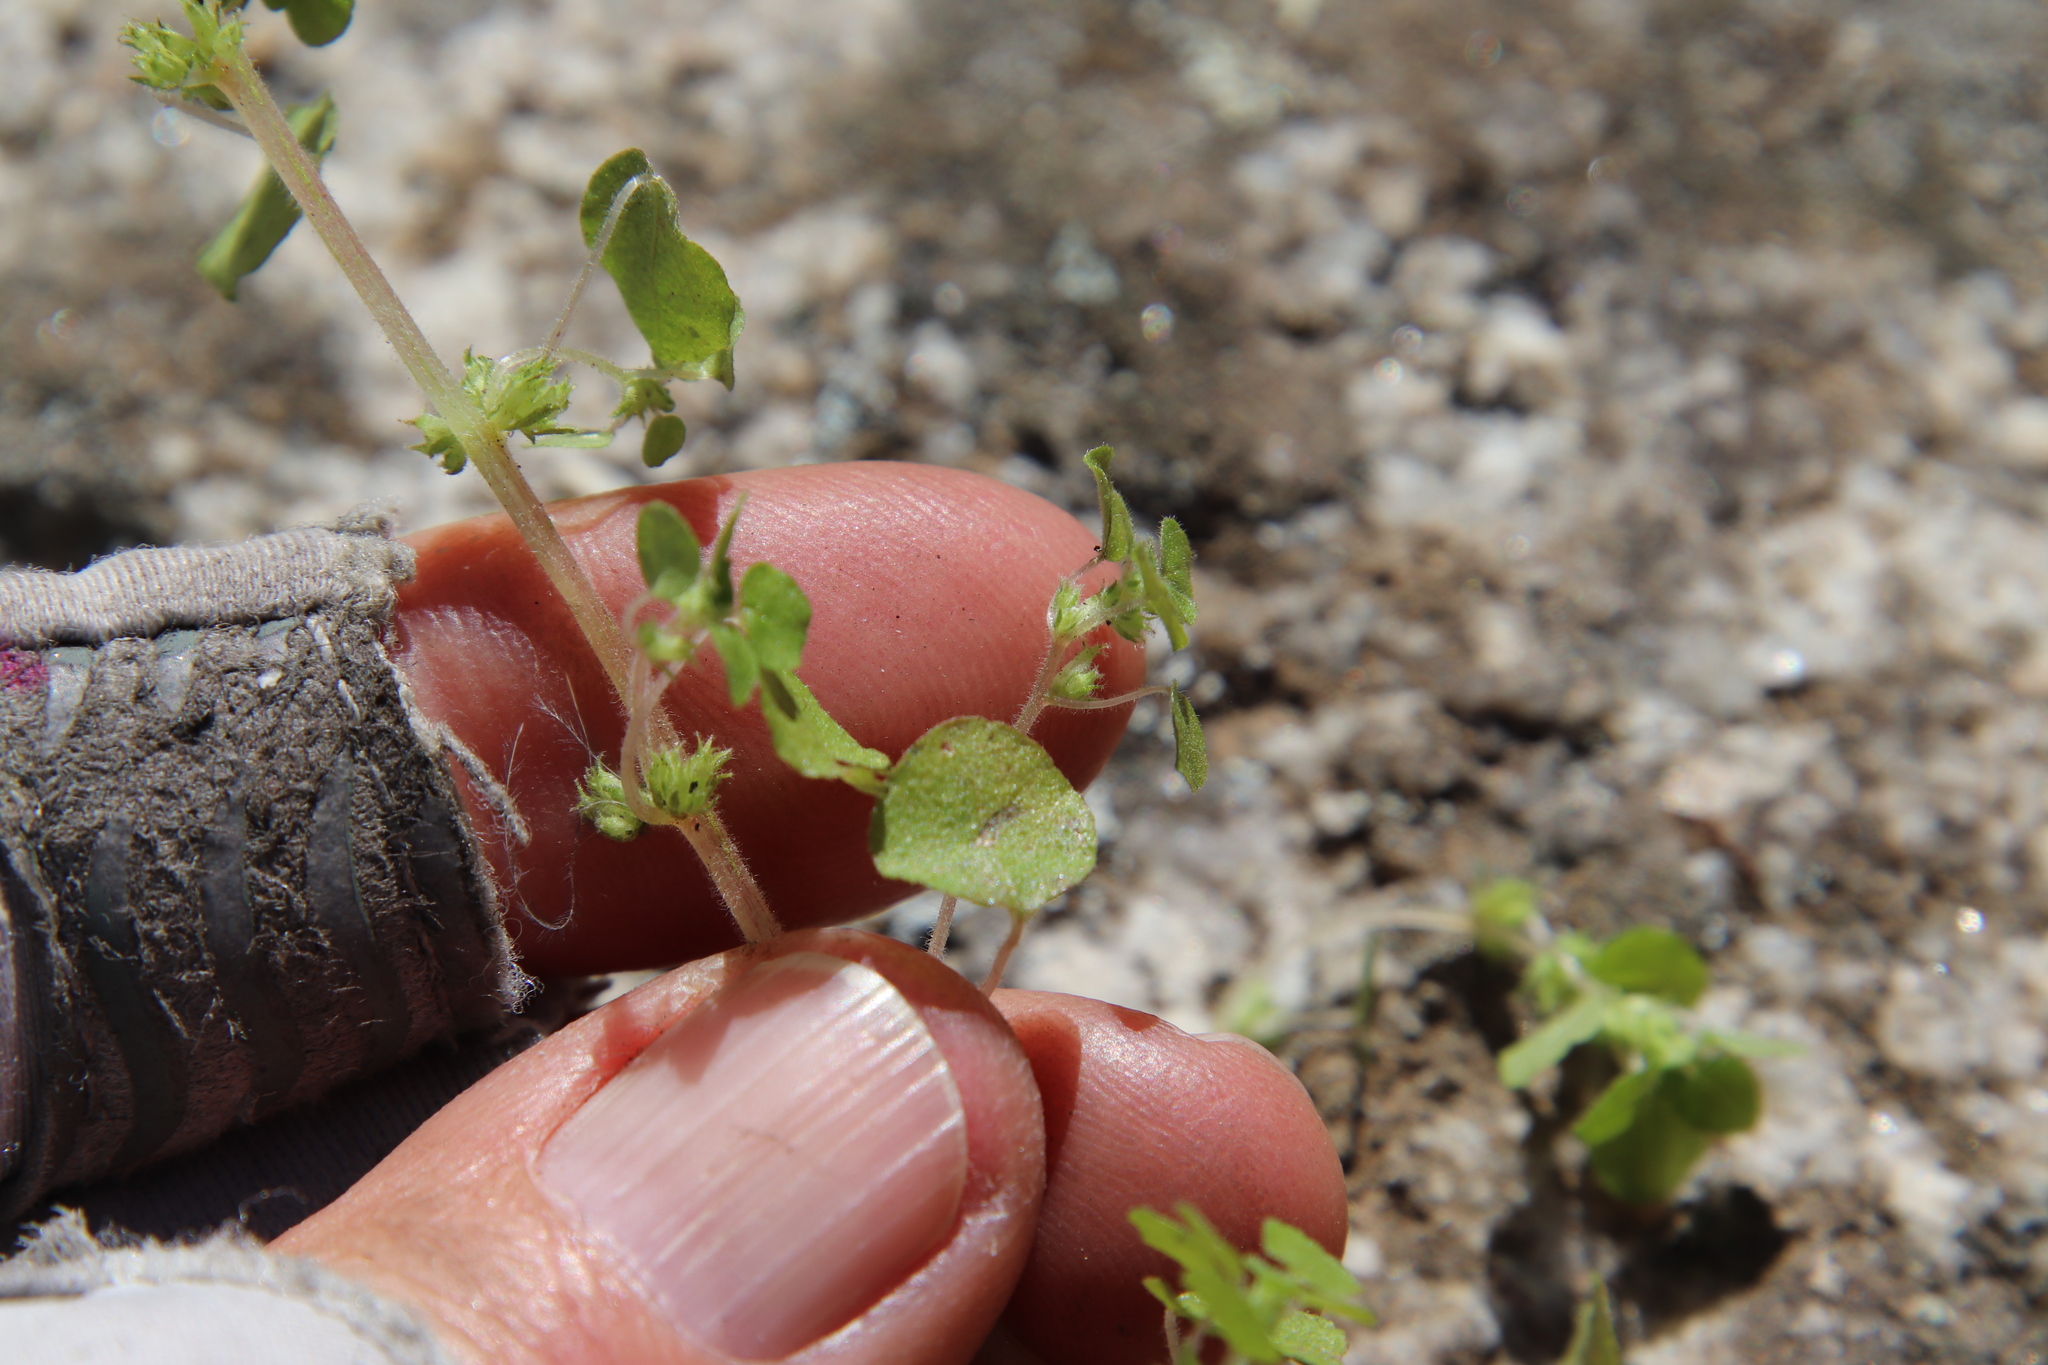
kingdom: Plantae
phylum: Tracheophyta
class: Magnoliopsida
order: Rosales
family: Urticaceae
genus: Parietaria
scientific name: Parietaria hespera
